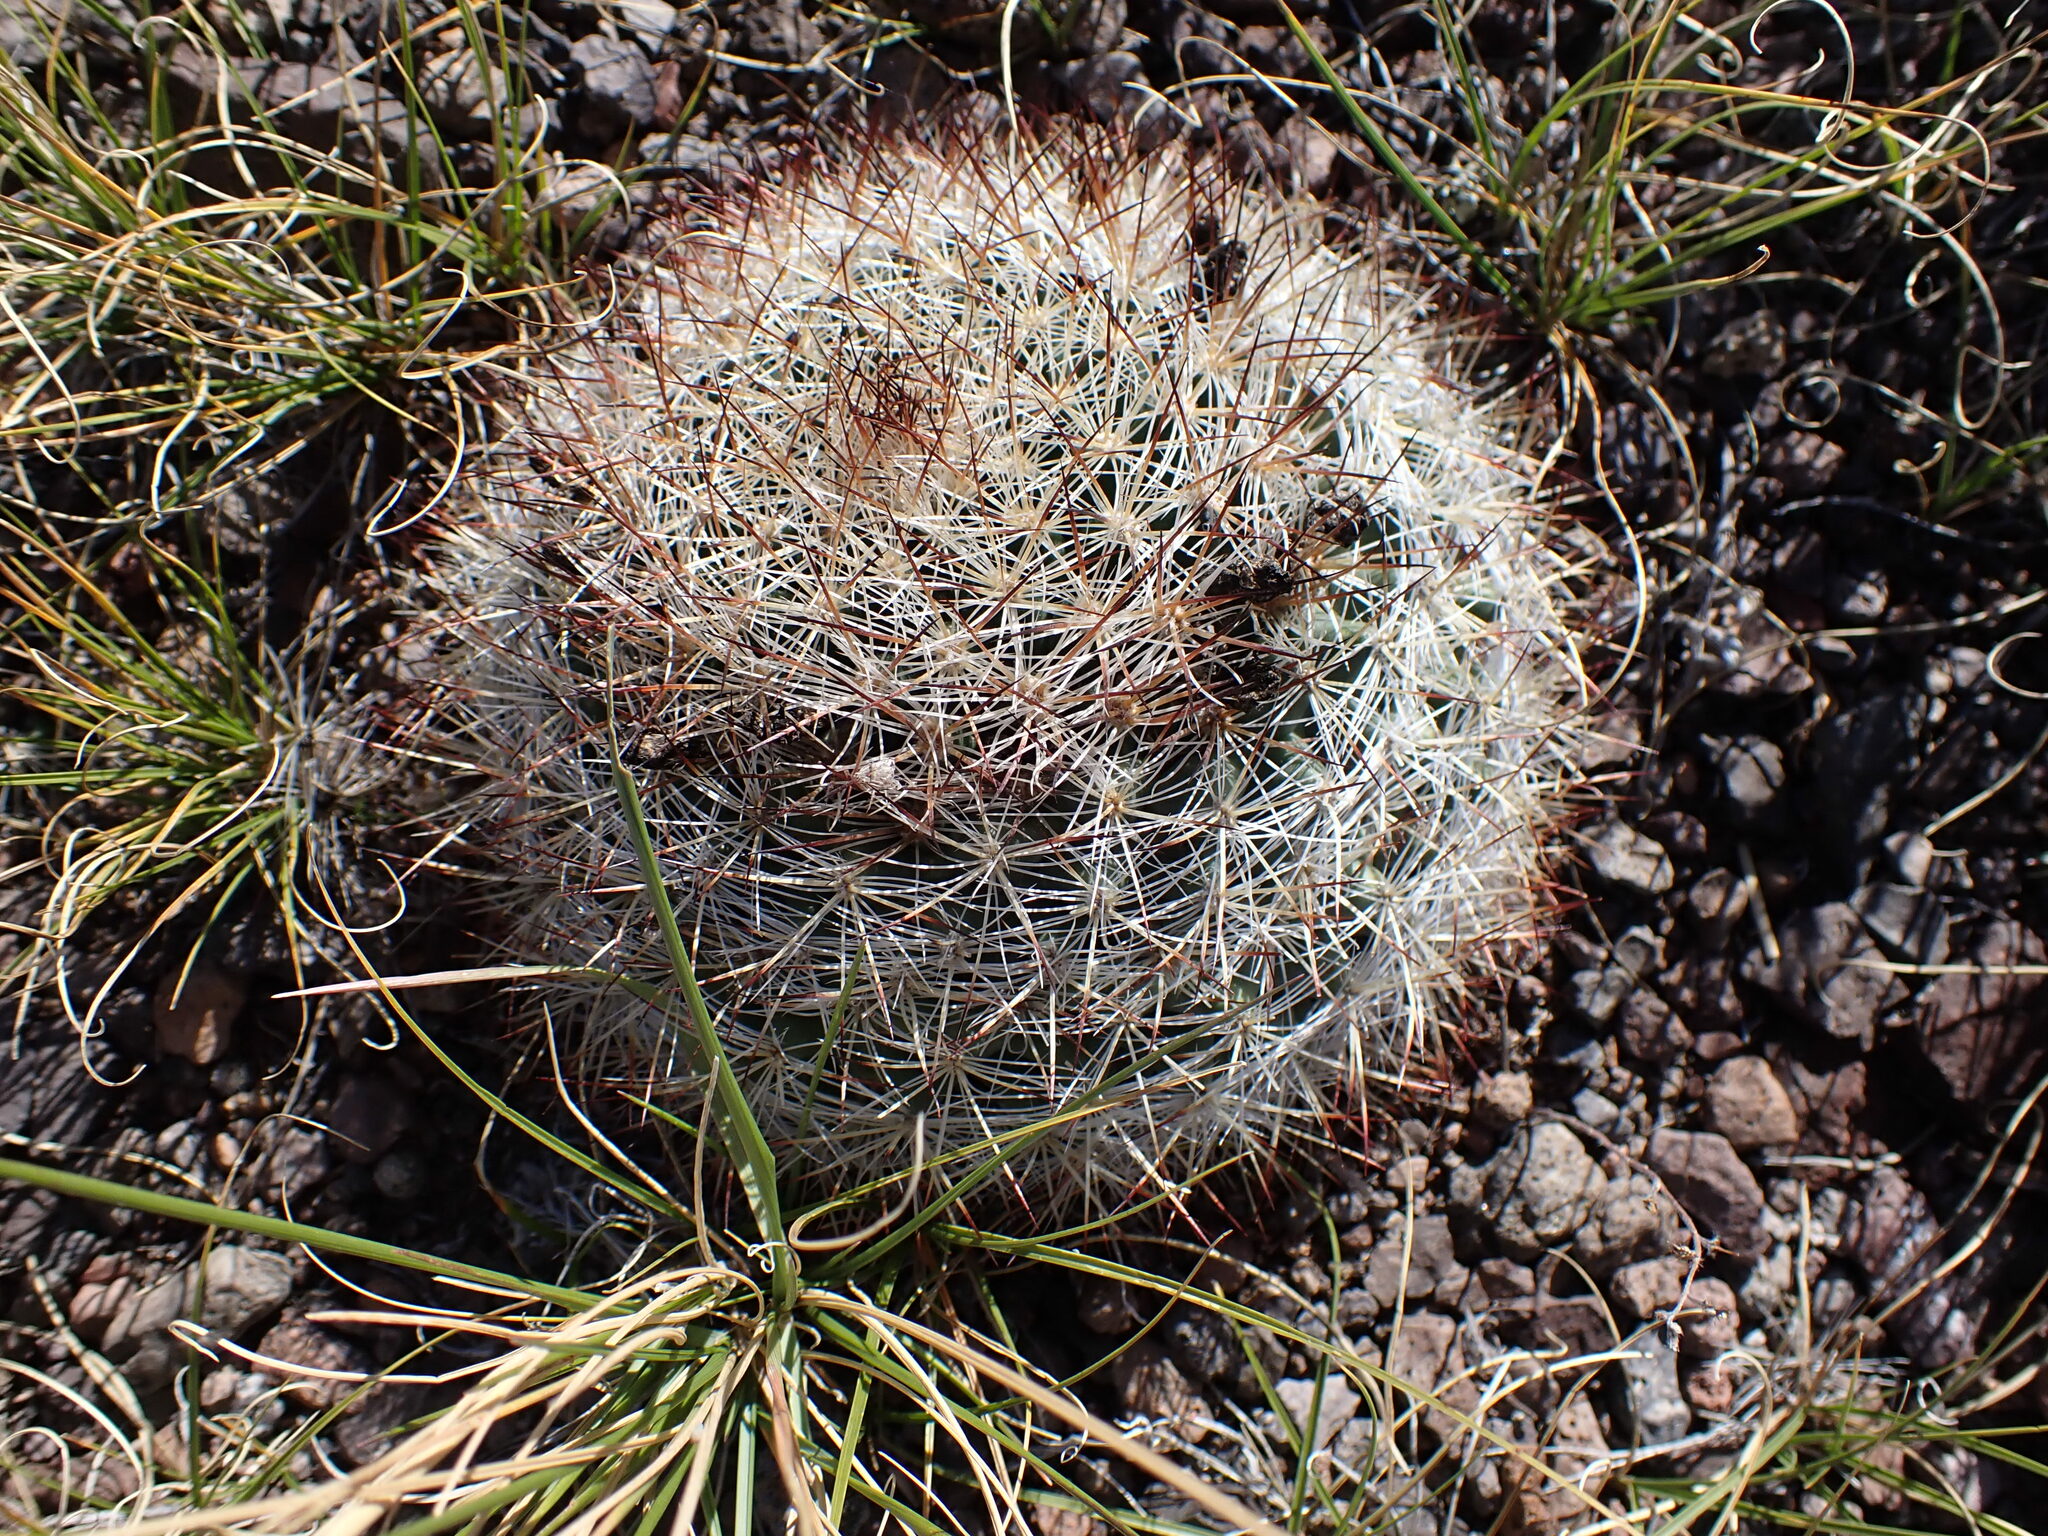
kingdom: Plantae
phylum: Tracheophyta
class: Magnoliopsida
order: Caryophyllales
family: Cactaceae
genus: Pediocactus
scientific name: Pediocactus simpsonii
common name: Simpson's hedgehog cactus
